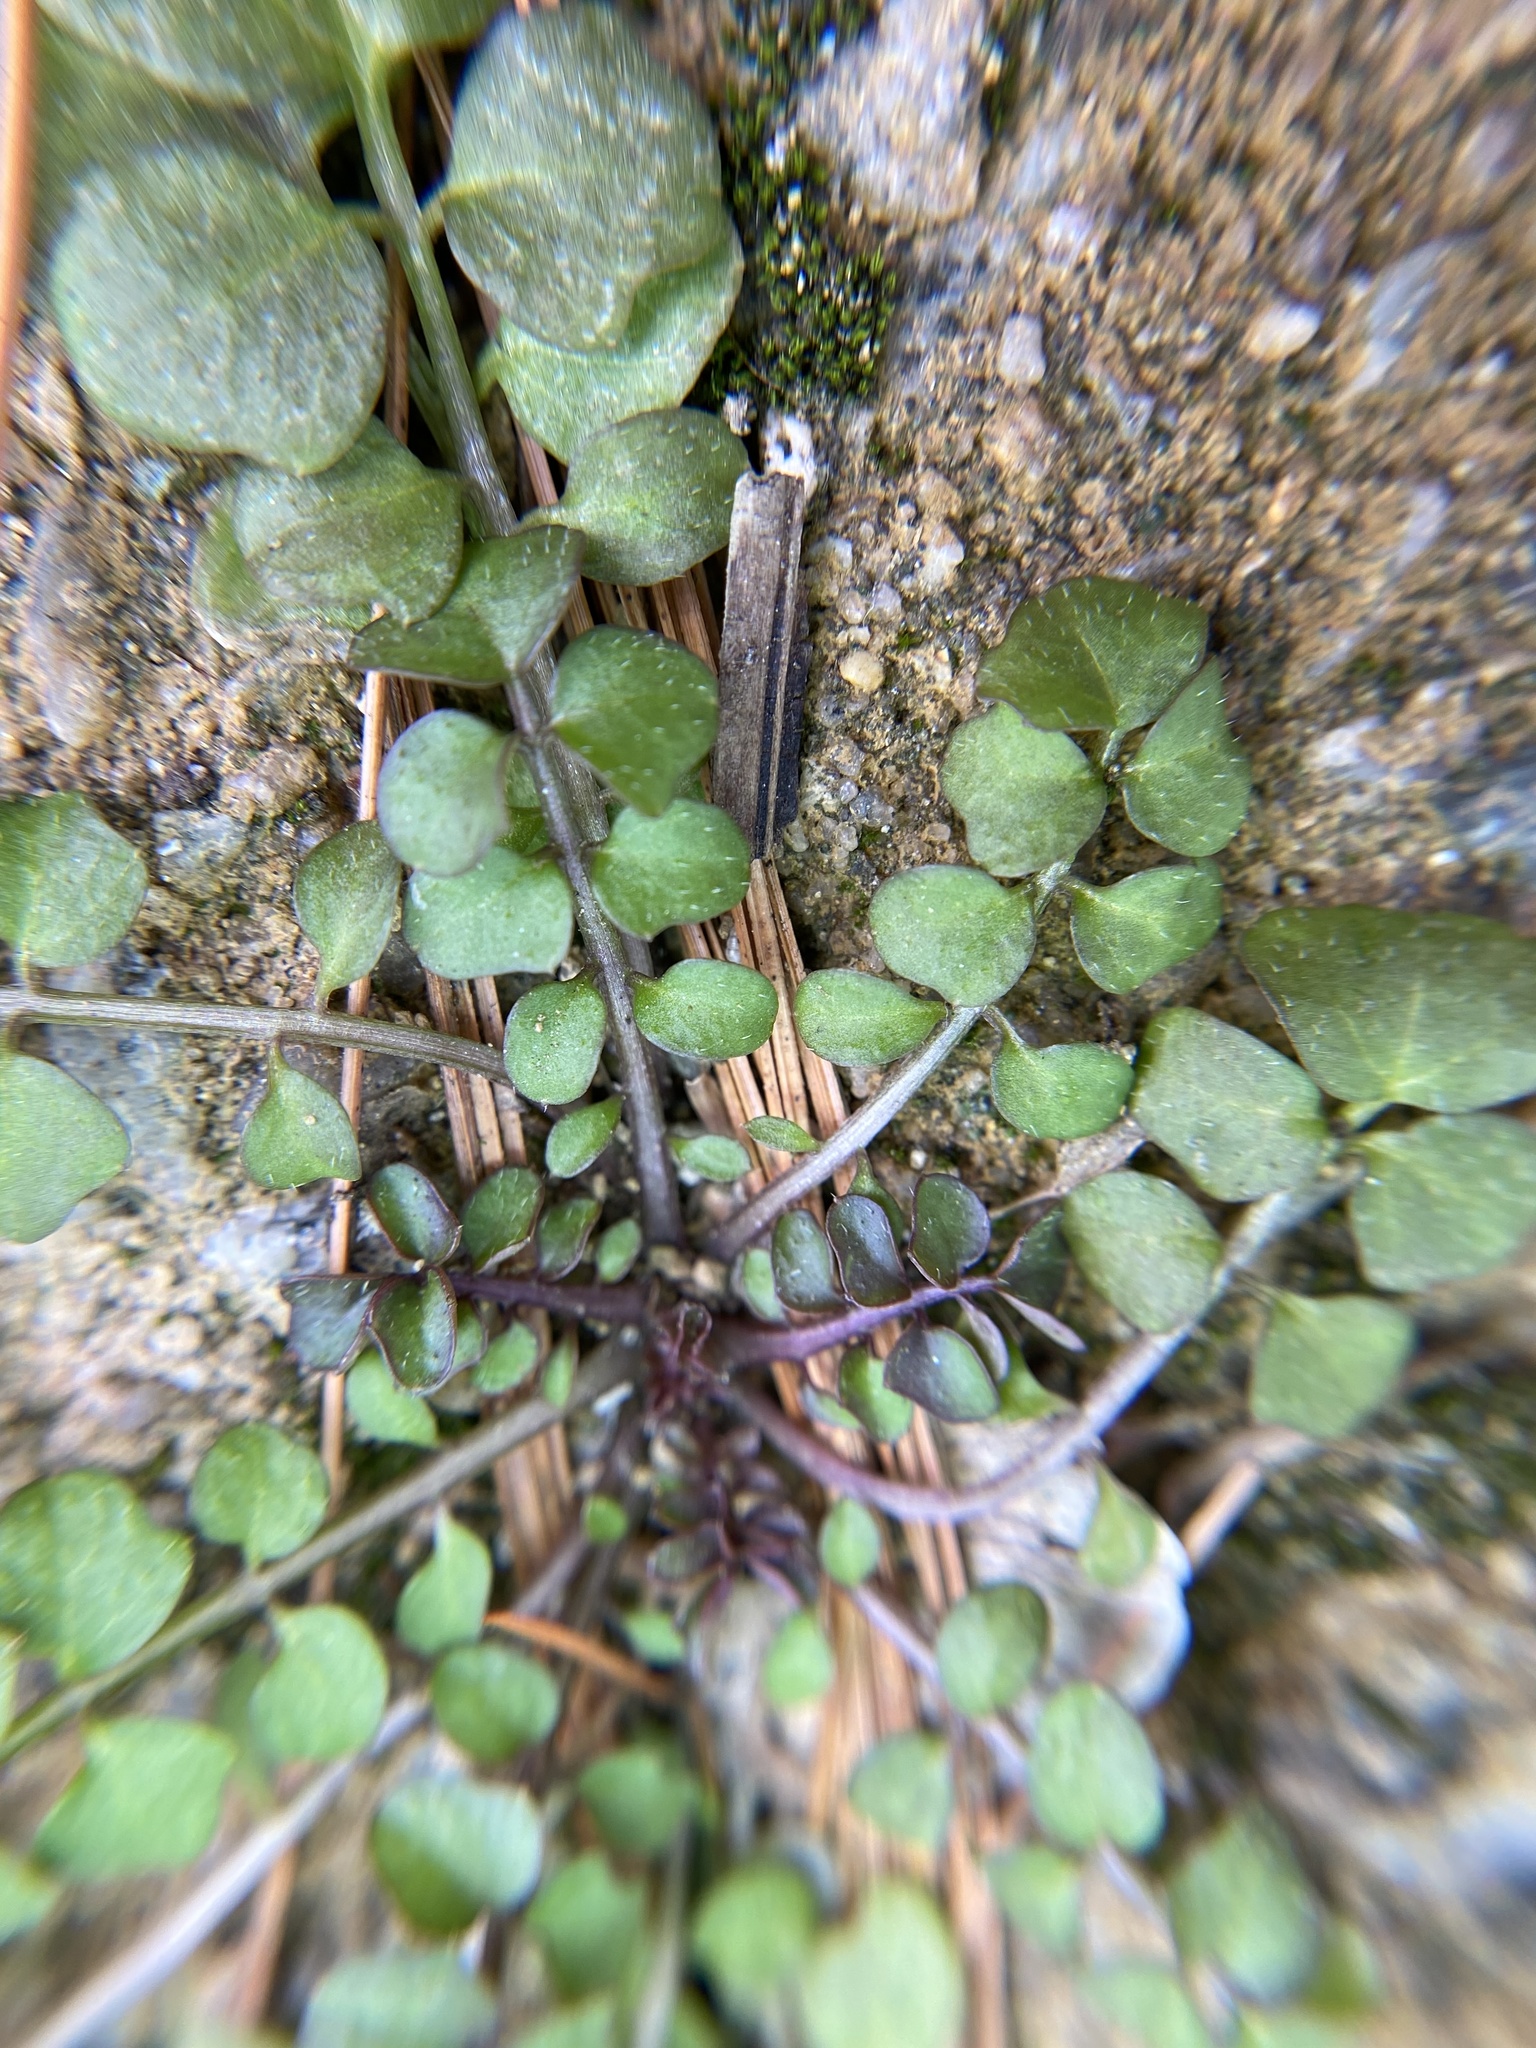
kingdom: Plantae
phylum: Tracheophyta
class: Magnoliopsida
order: Brassicales
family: Brassicaceae
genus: Cardamine
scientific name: Cardamine hirsuta
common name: Hairy bittercress
